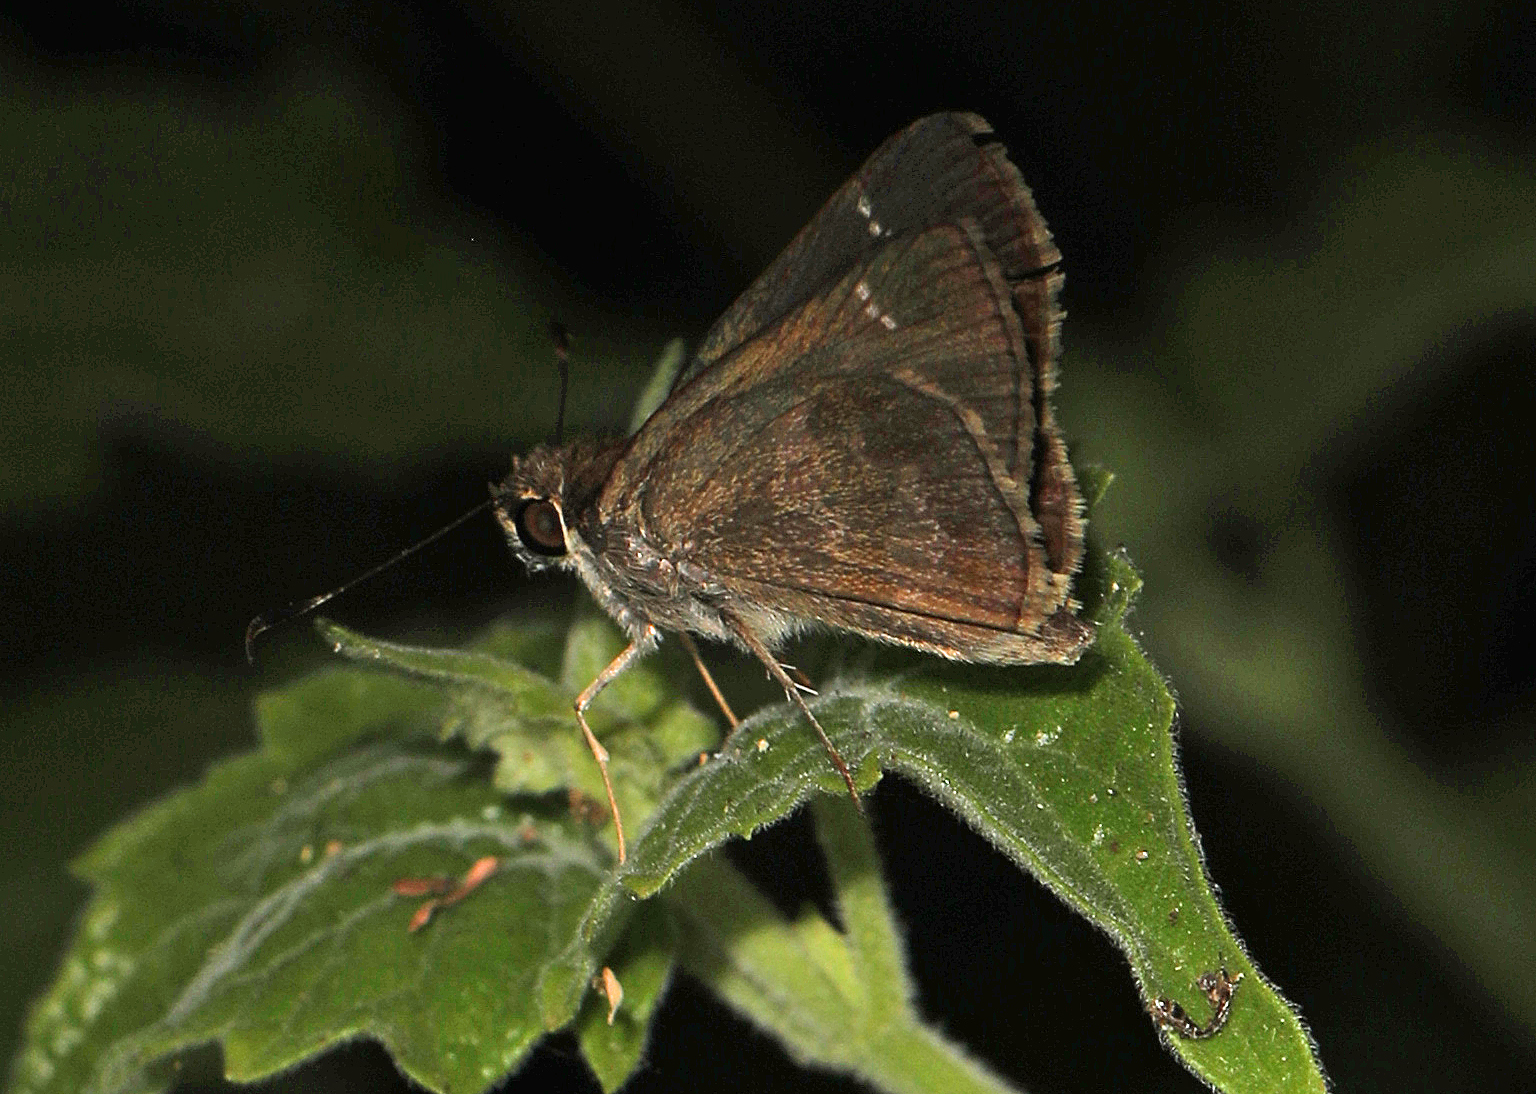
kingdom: Animalia
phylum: Arthropoda
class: Insecta
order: Lepidoptera
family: Hesperiidae
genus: Cymaenes
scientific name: Cymaenes
